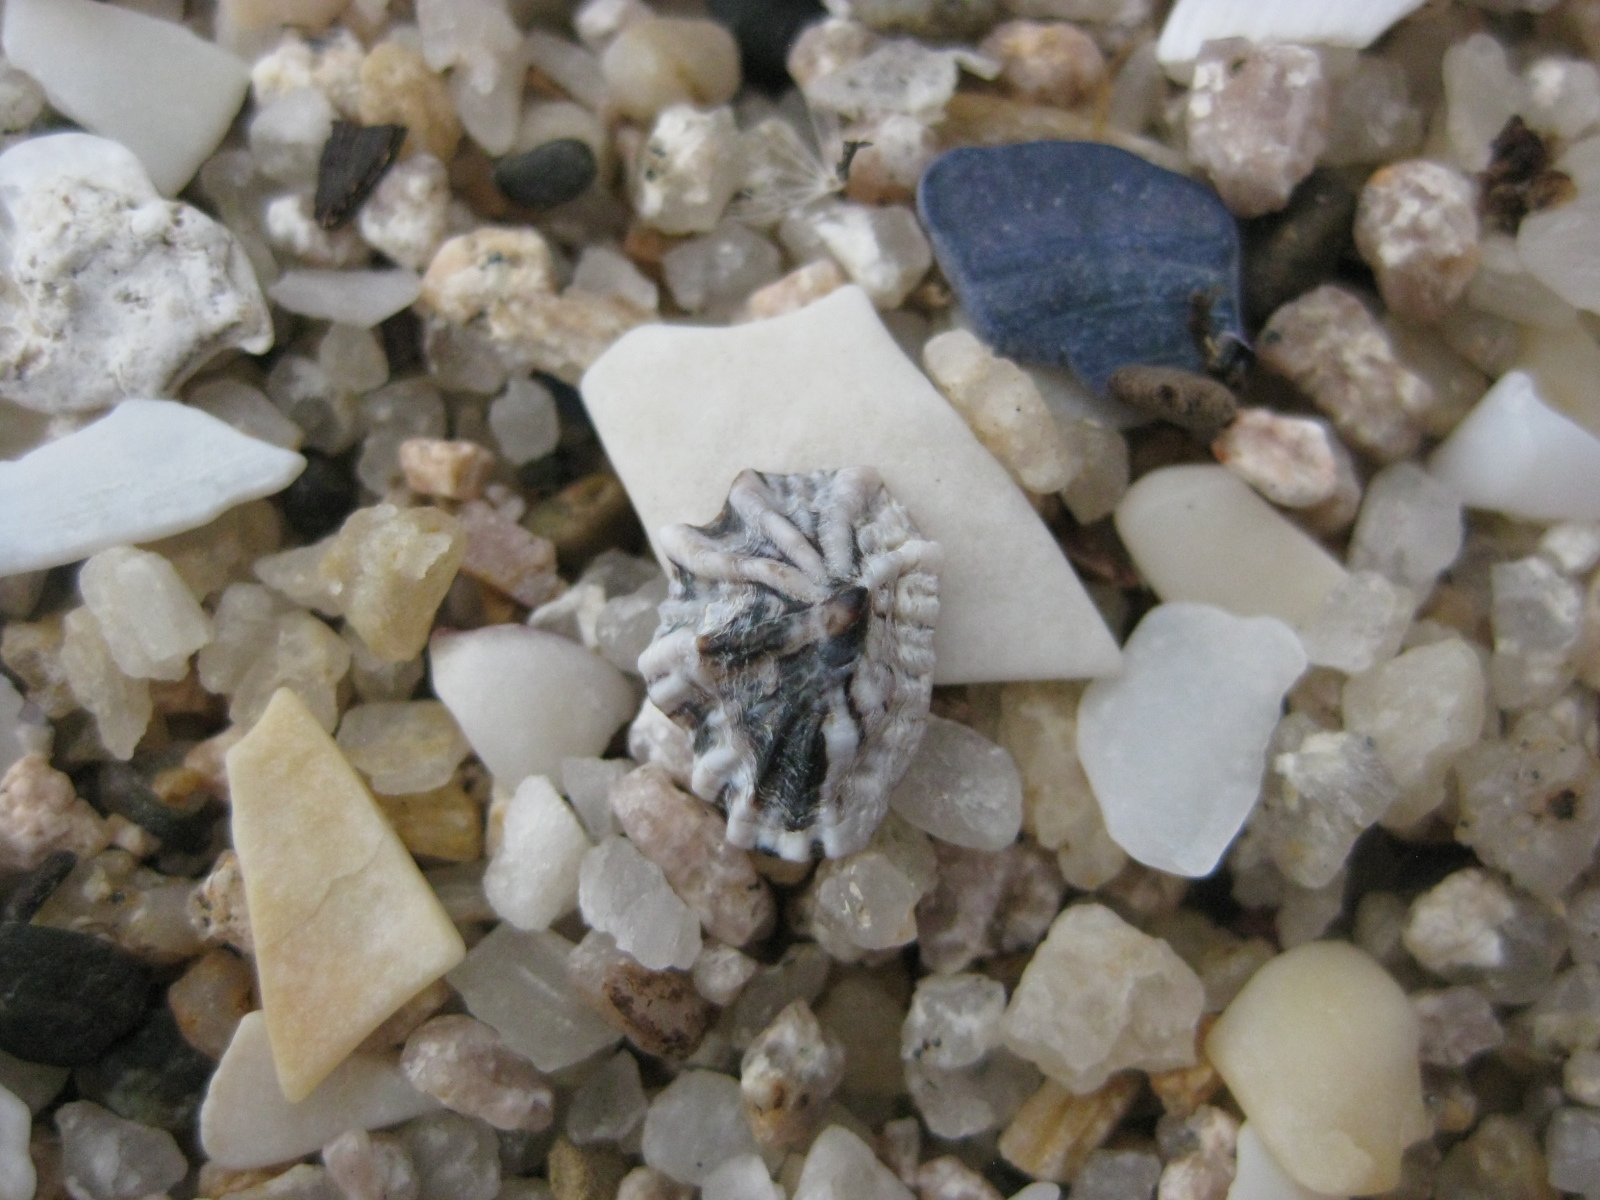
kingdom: Animalia
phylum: Mollusca
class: Gastropoda
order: Siphonariida
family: Siphonariidae
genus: Siphonaria
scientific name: Siphonaria australis
